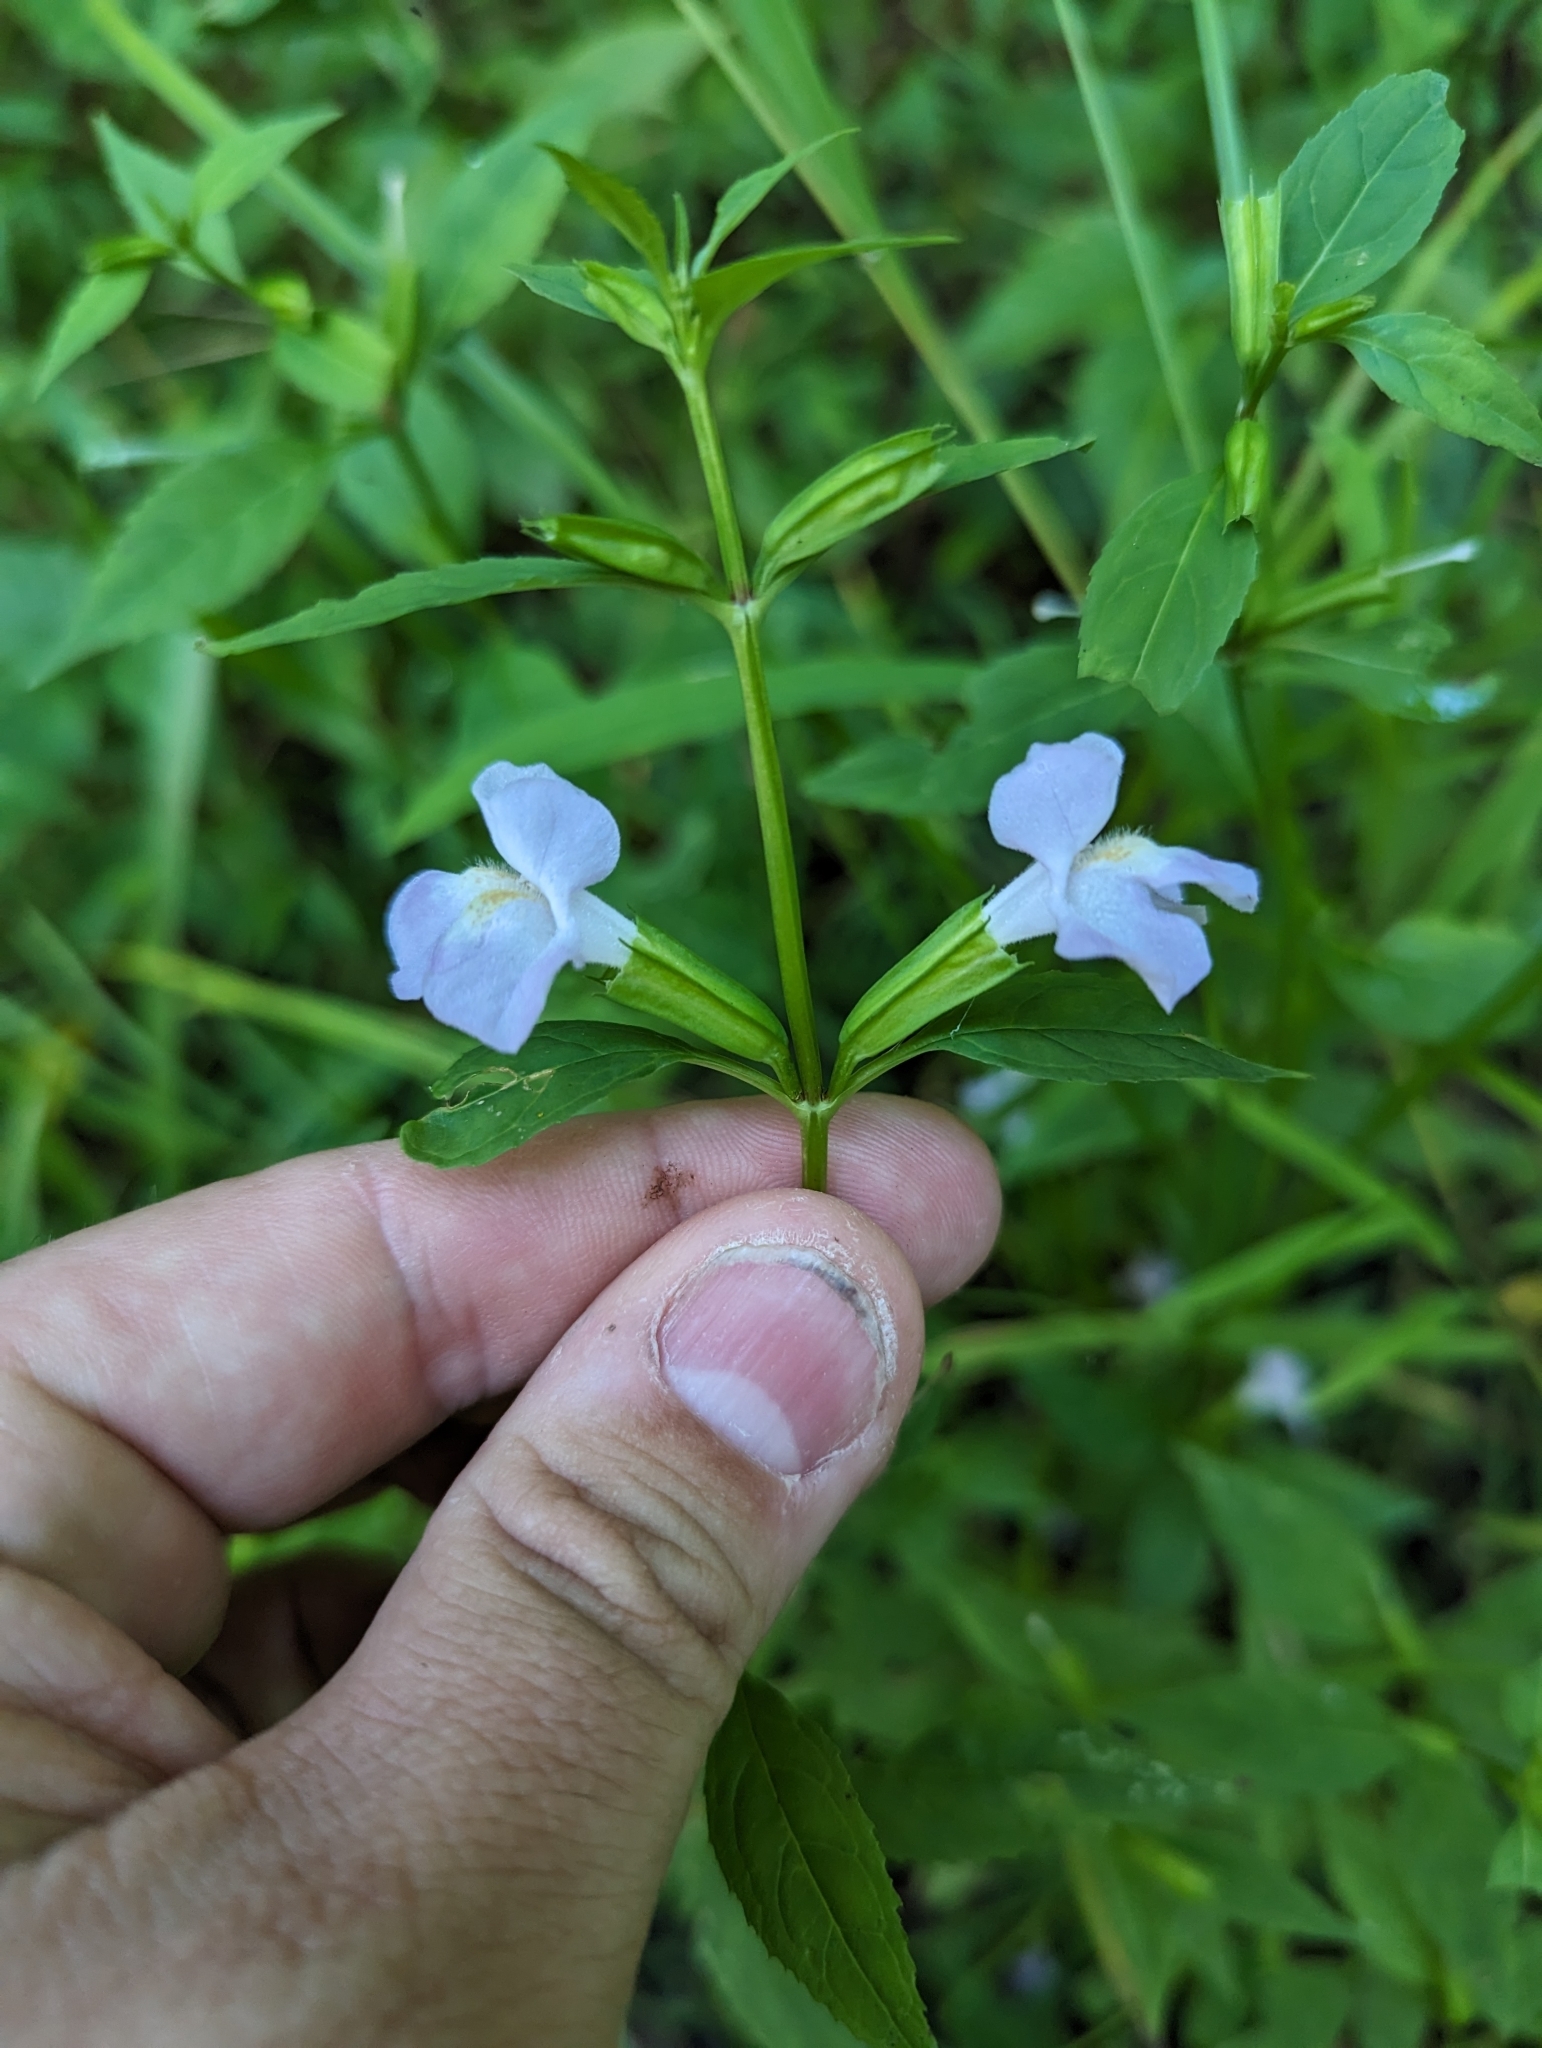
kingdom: Plantae
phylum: Tracheophyta
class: Magnoliopsida
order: Lamiales
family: Phrymaceae
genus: Mimulus
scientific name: Mimulus alatus
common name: Sharp-wing monkey-flower
